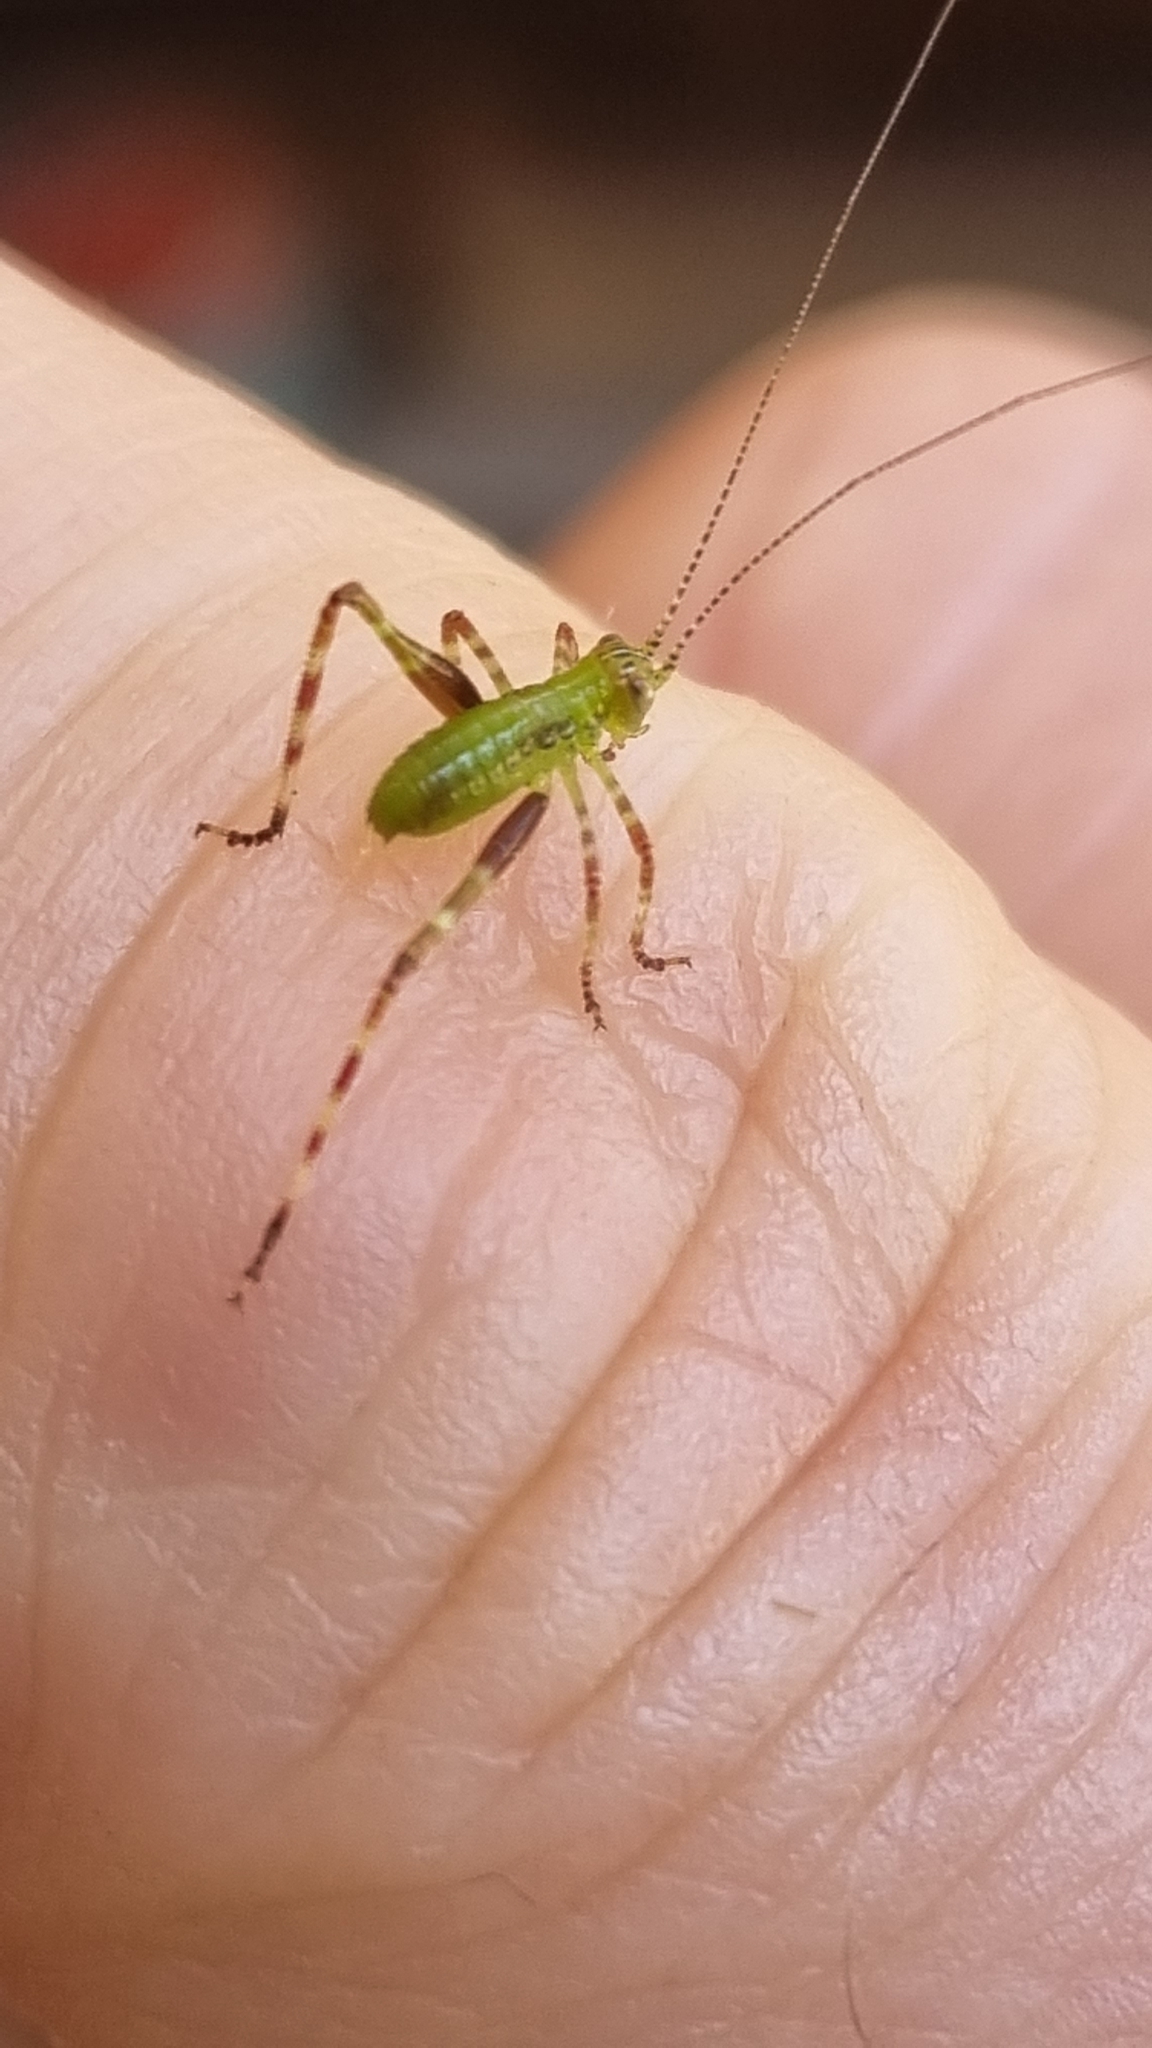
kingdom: Animalia
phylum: Arthropoda
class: Insecta
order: Orthoptera
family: Tettigoniidae
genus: Caedicia
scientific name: Caedicia simplex
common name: Common garden katydid
